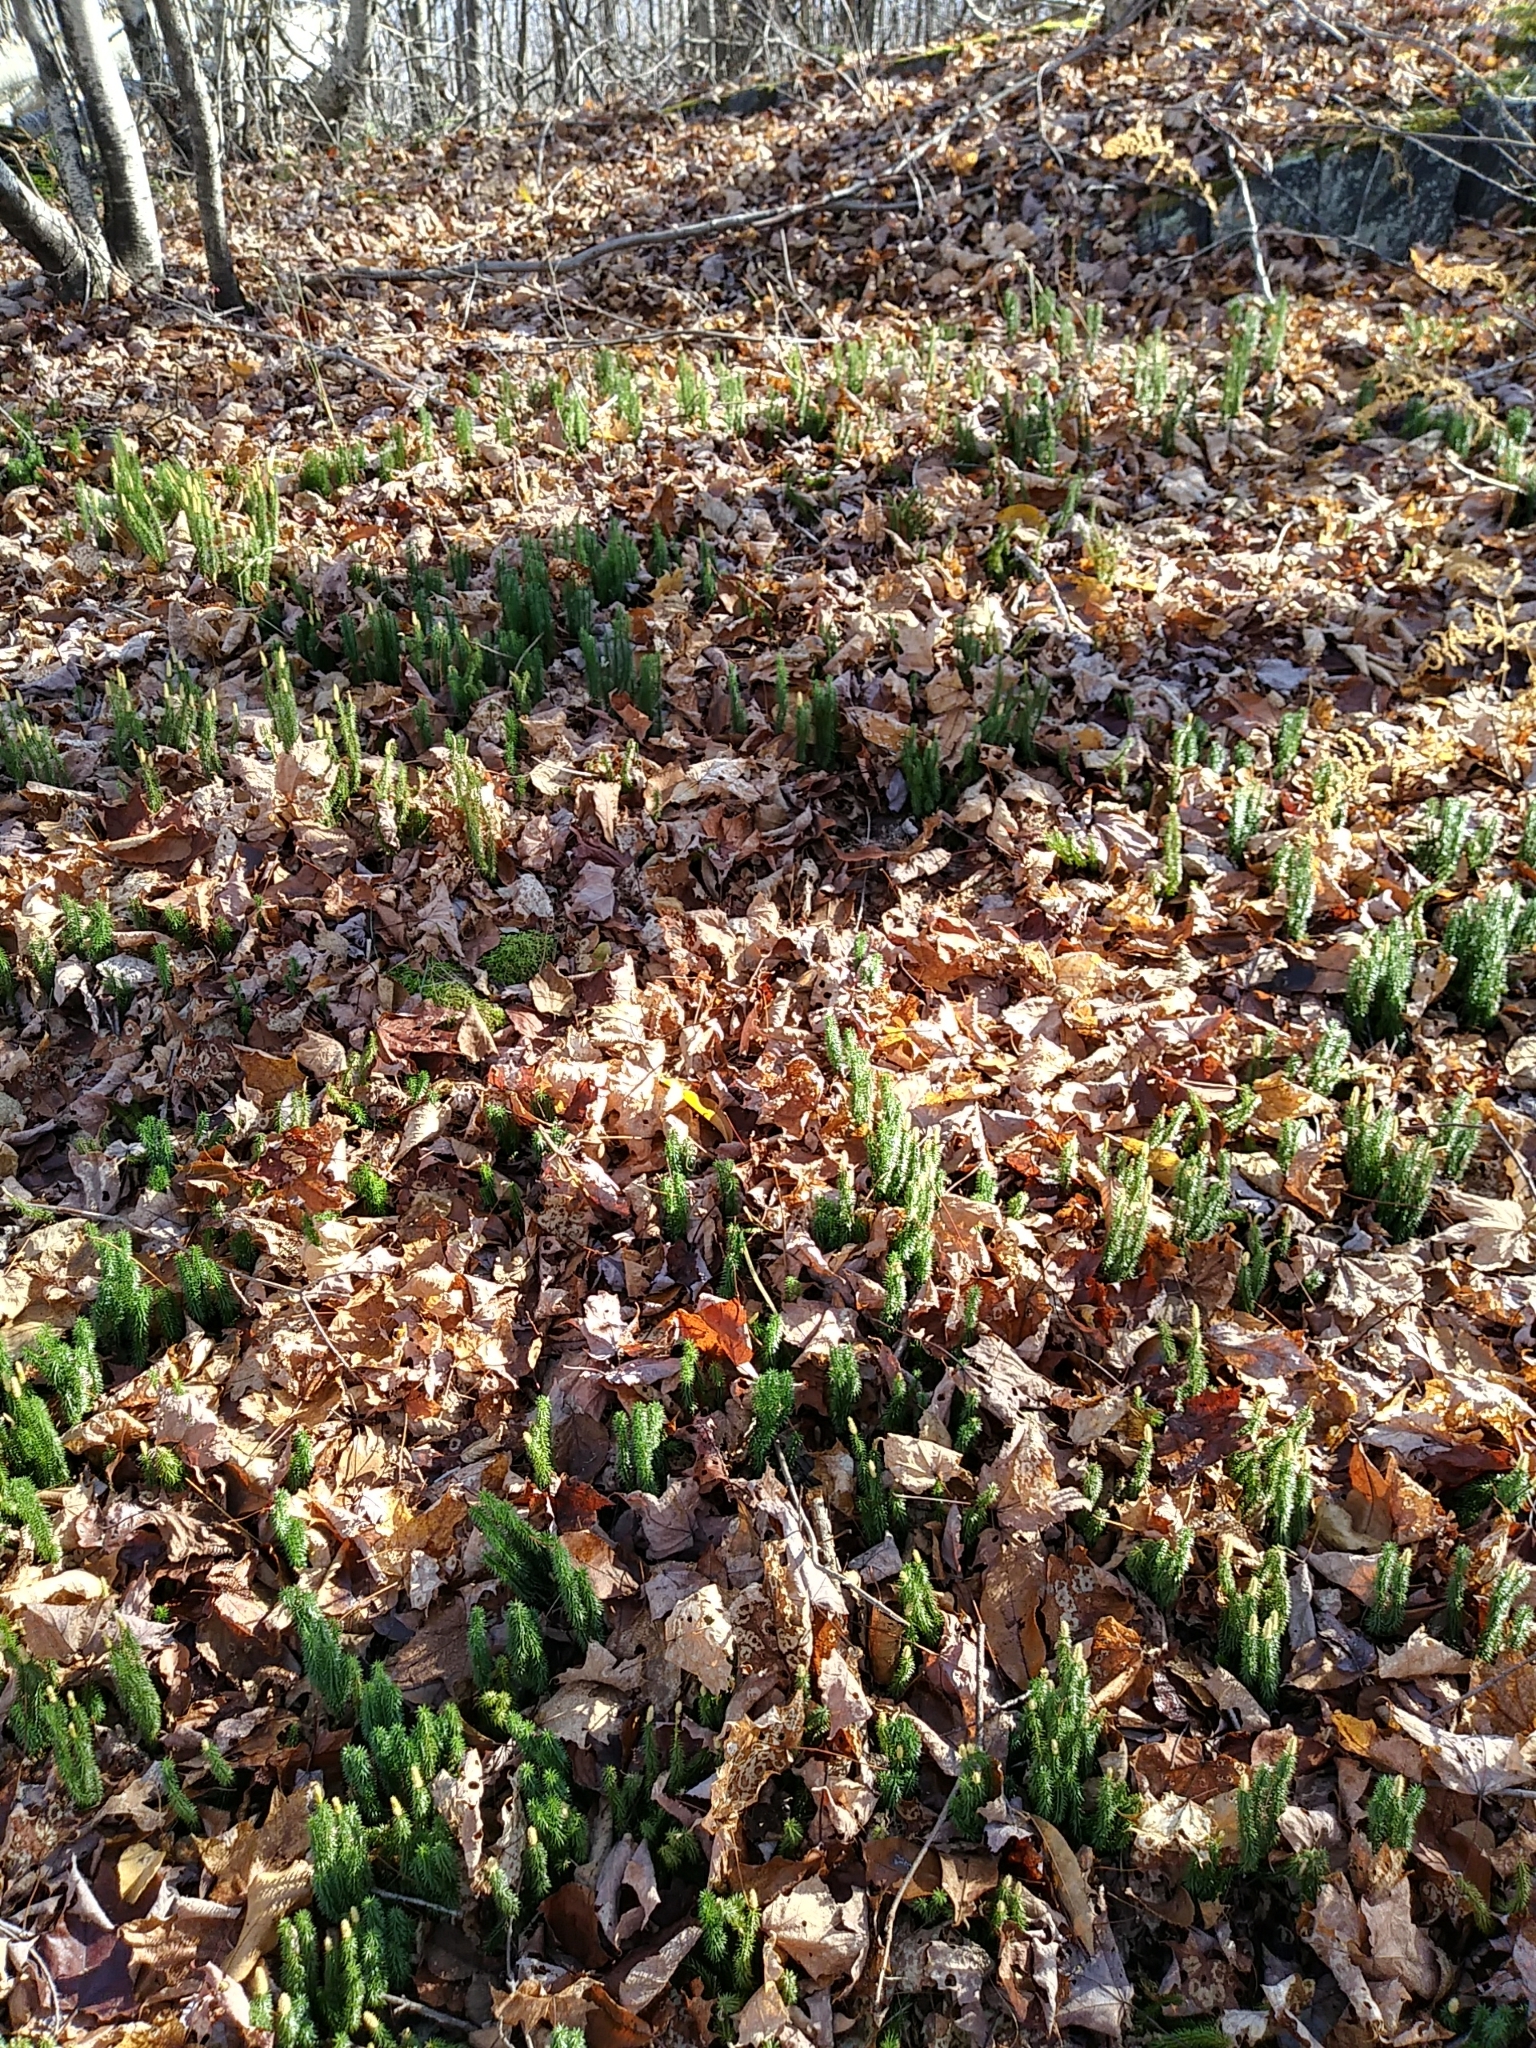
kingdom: Plantae
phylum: Tracheophyta
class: Lycopodiopsida
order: Lycopodiales
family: Lycopodiaceae
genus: Spinulum
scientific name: Spinulum annotinum
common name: Interrupted club-moss
